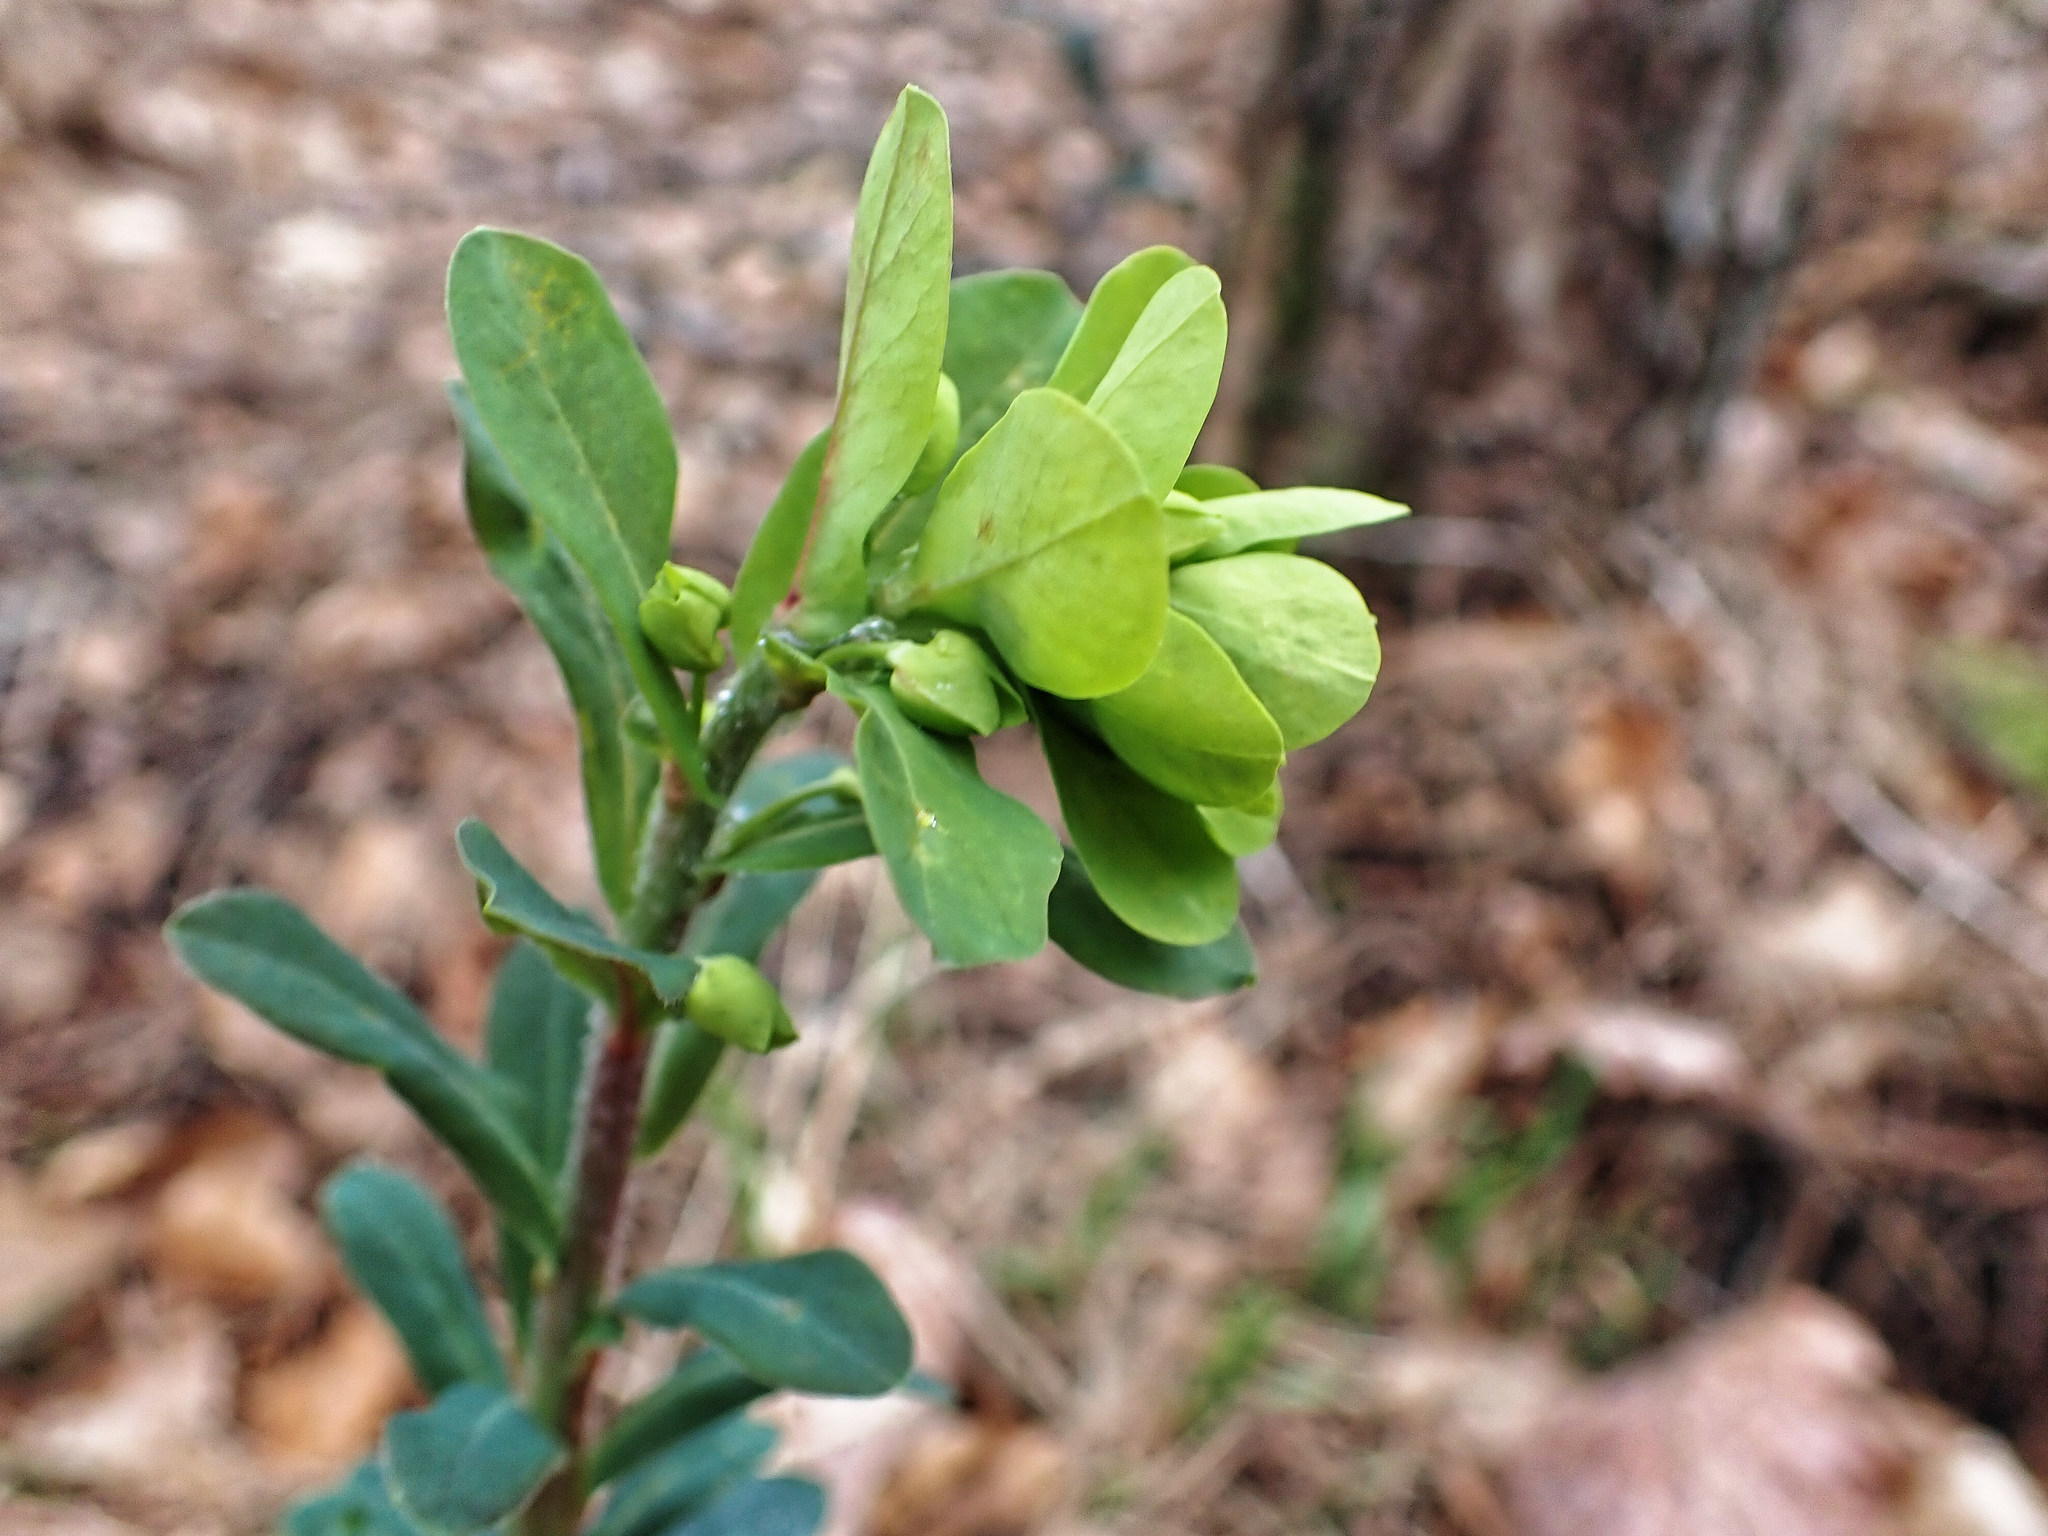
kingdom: Plantae
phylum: Tracheophyta
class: Magnoliopsida
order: Malpighiales
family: Euphorbiaceae
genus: Euphorbia
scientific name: Euphorbia amygdaloides
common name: Wood spurge
